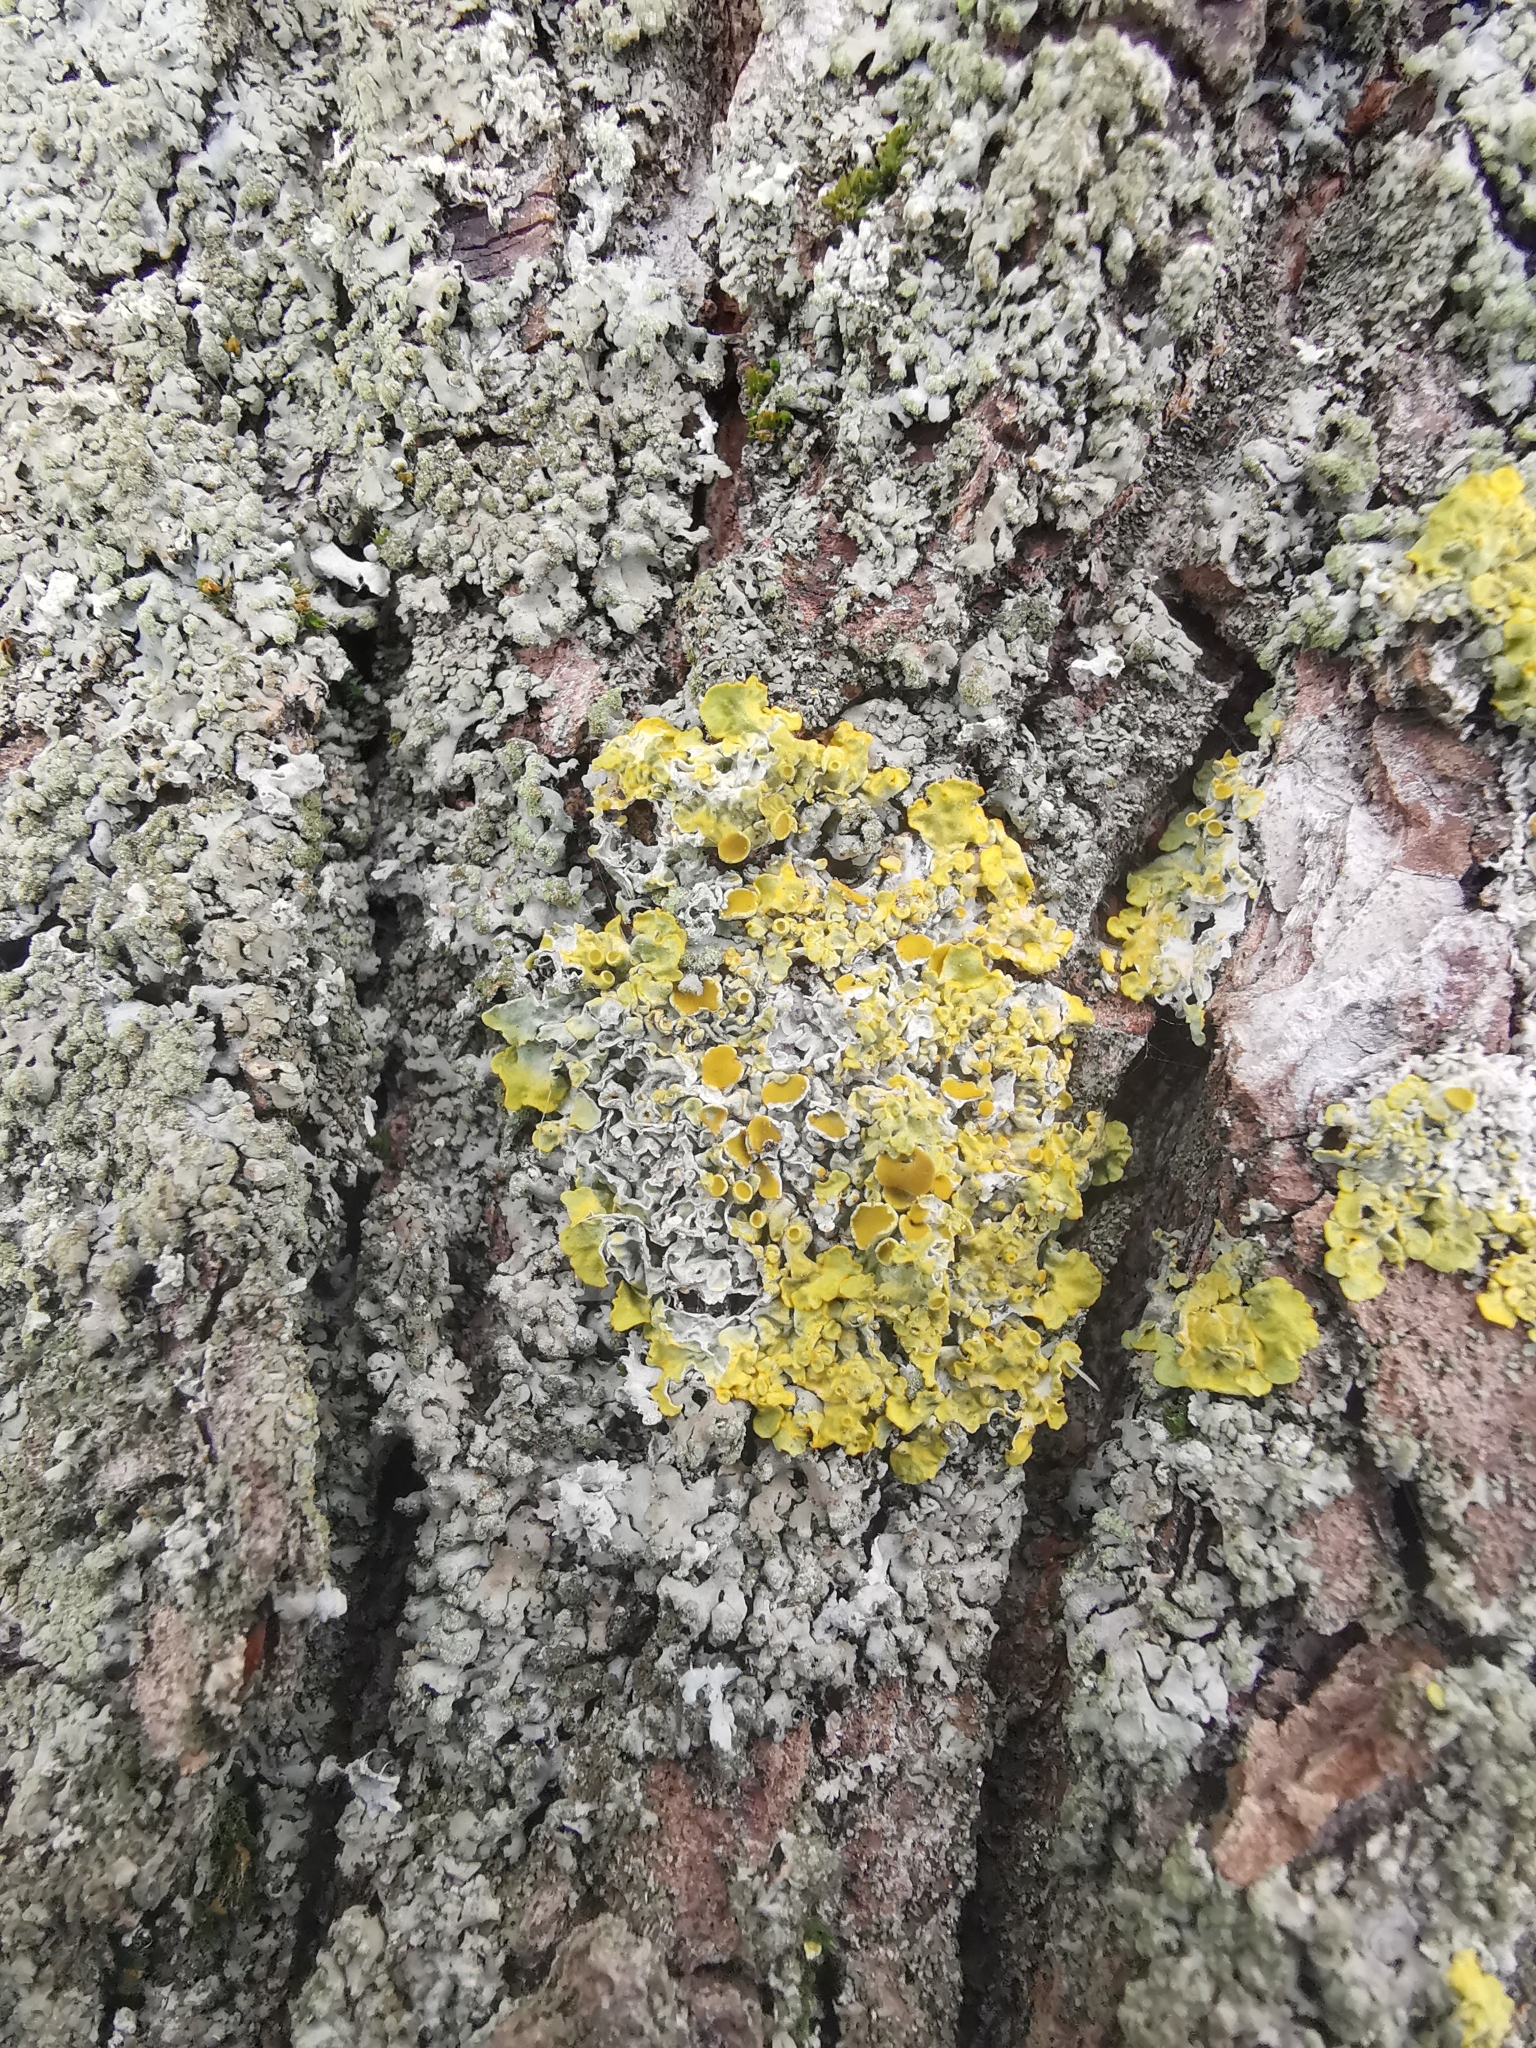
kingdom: Fungi
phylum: Ascomycota
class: Lecanoromycetes
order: Teloschistales
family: Teloschistaceae
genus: Xanthoria
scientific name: Xanthoria parietina
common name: Common orange lichen
